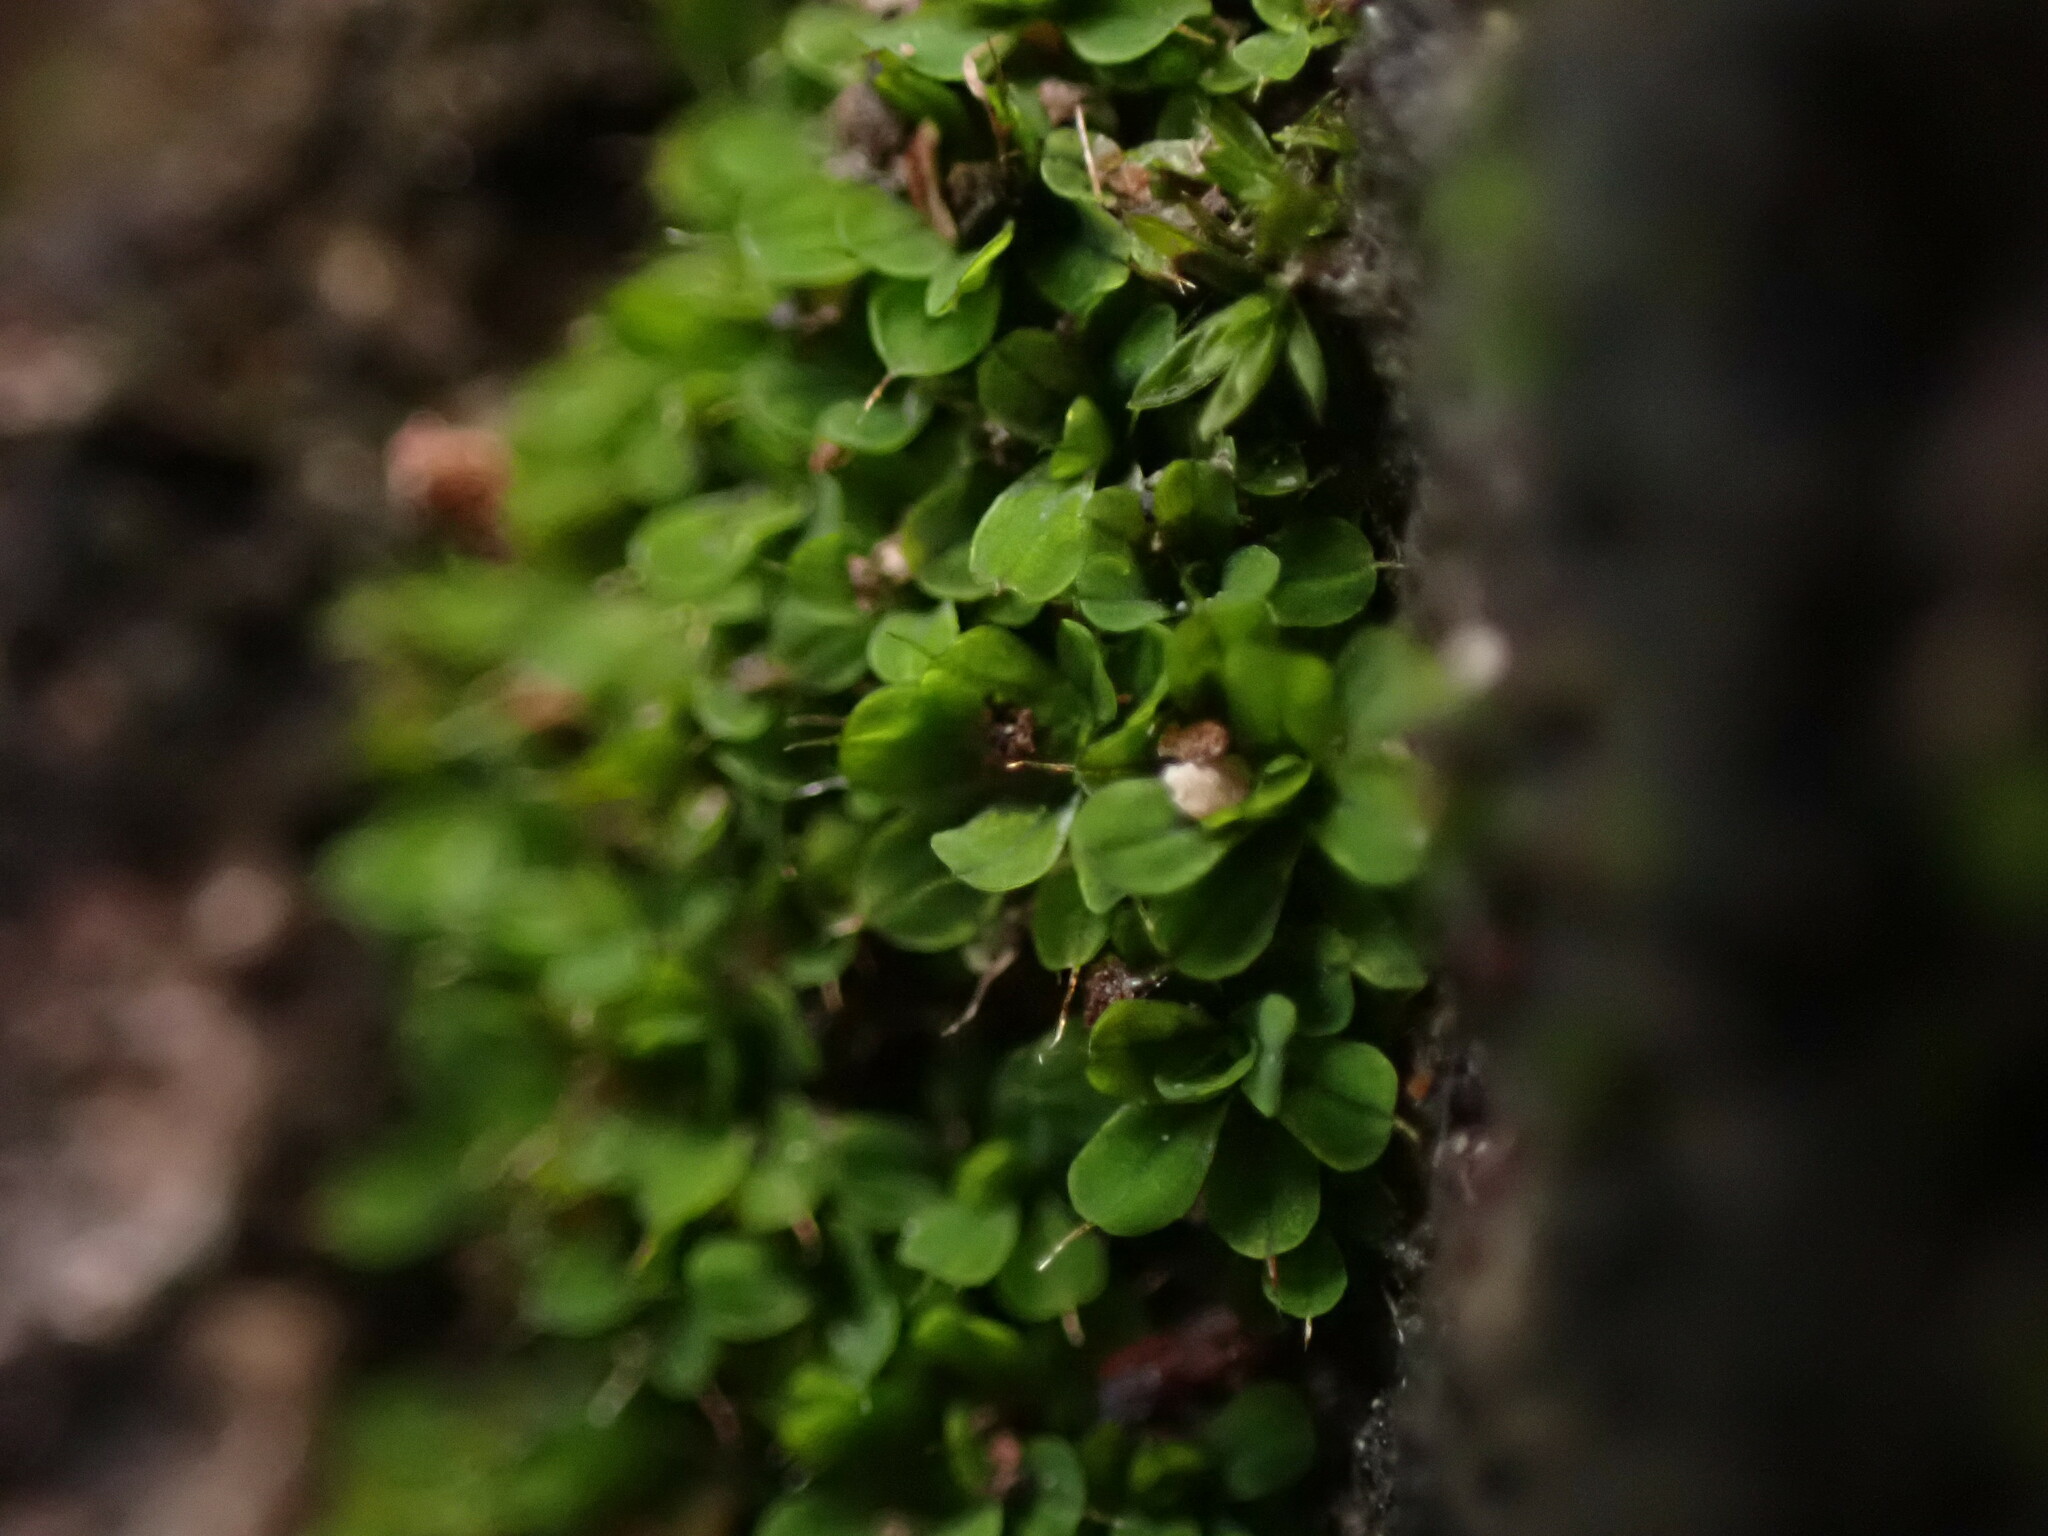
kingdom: Plantae
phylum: Bryophyta
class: Bryopsida
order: Pottiales
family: Pottiaceae
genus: Syntrichia
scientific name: Syntrichia pagorum
